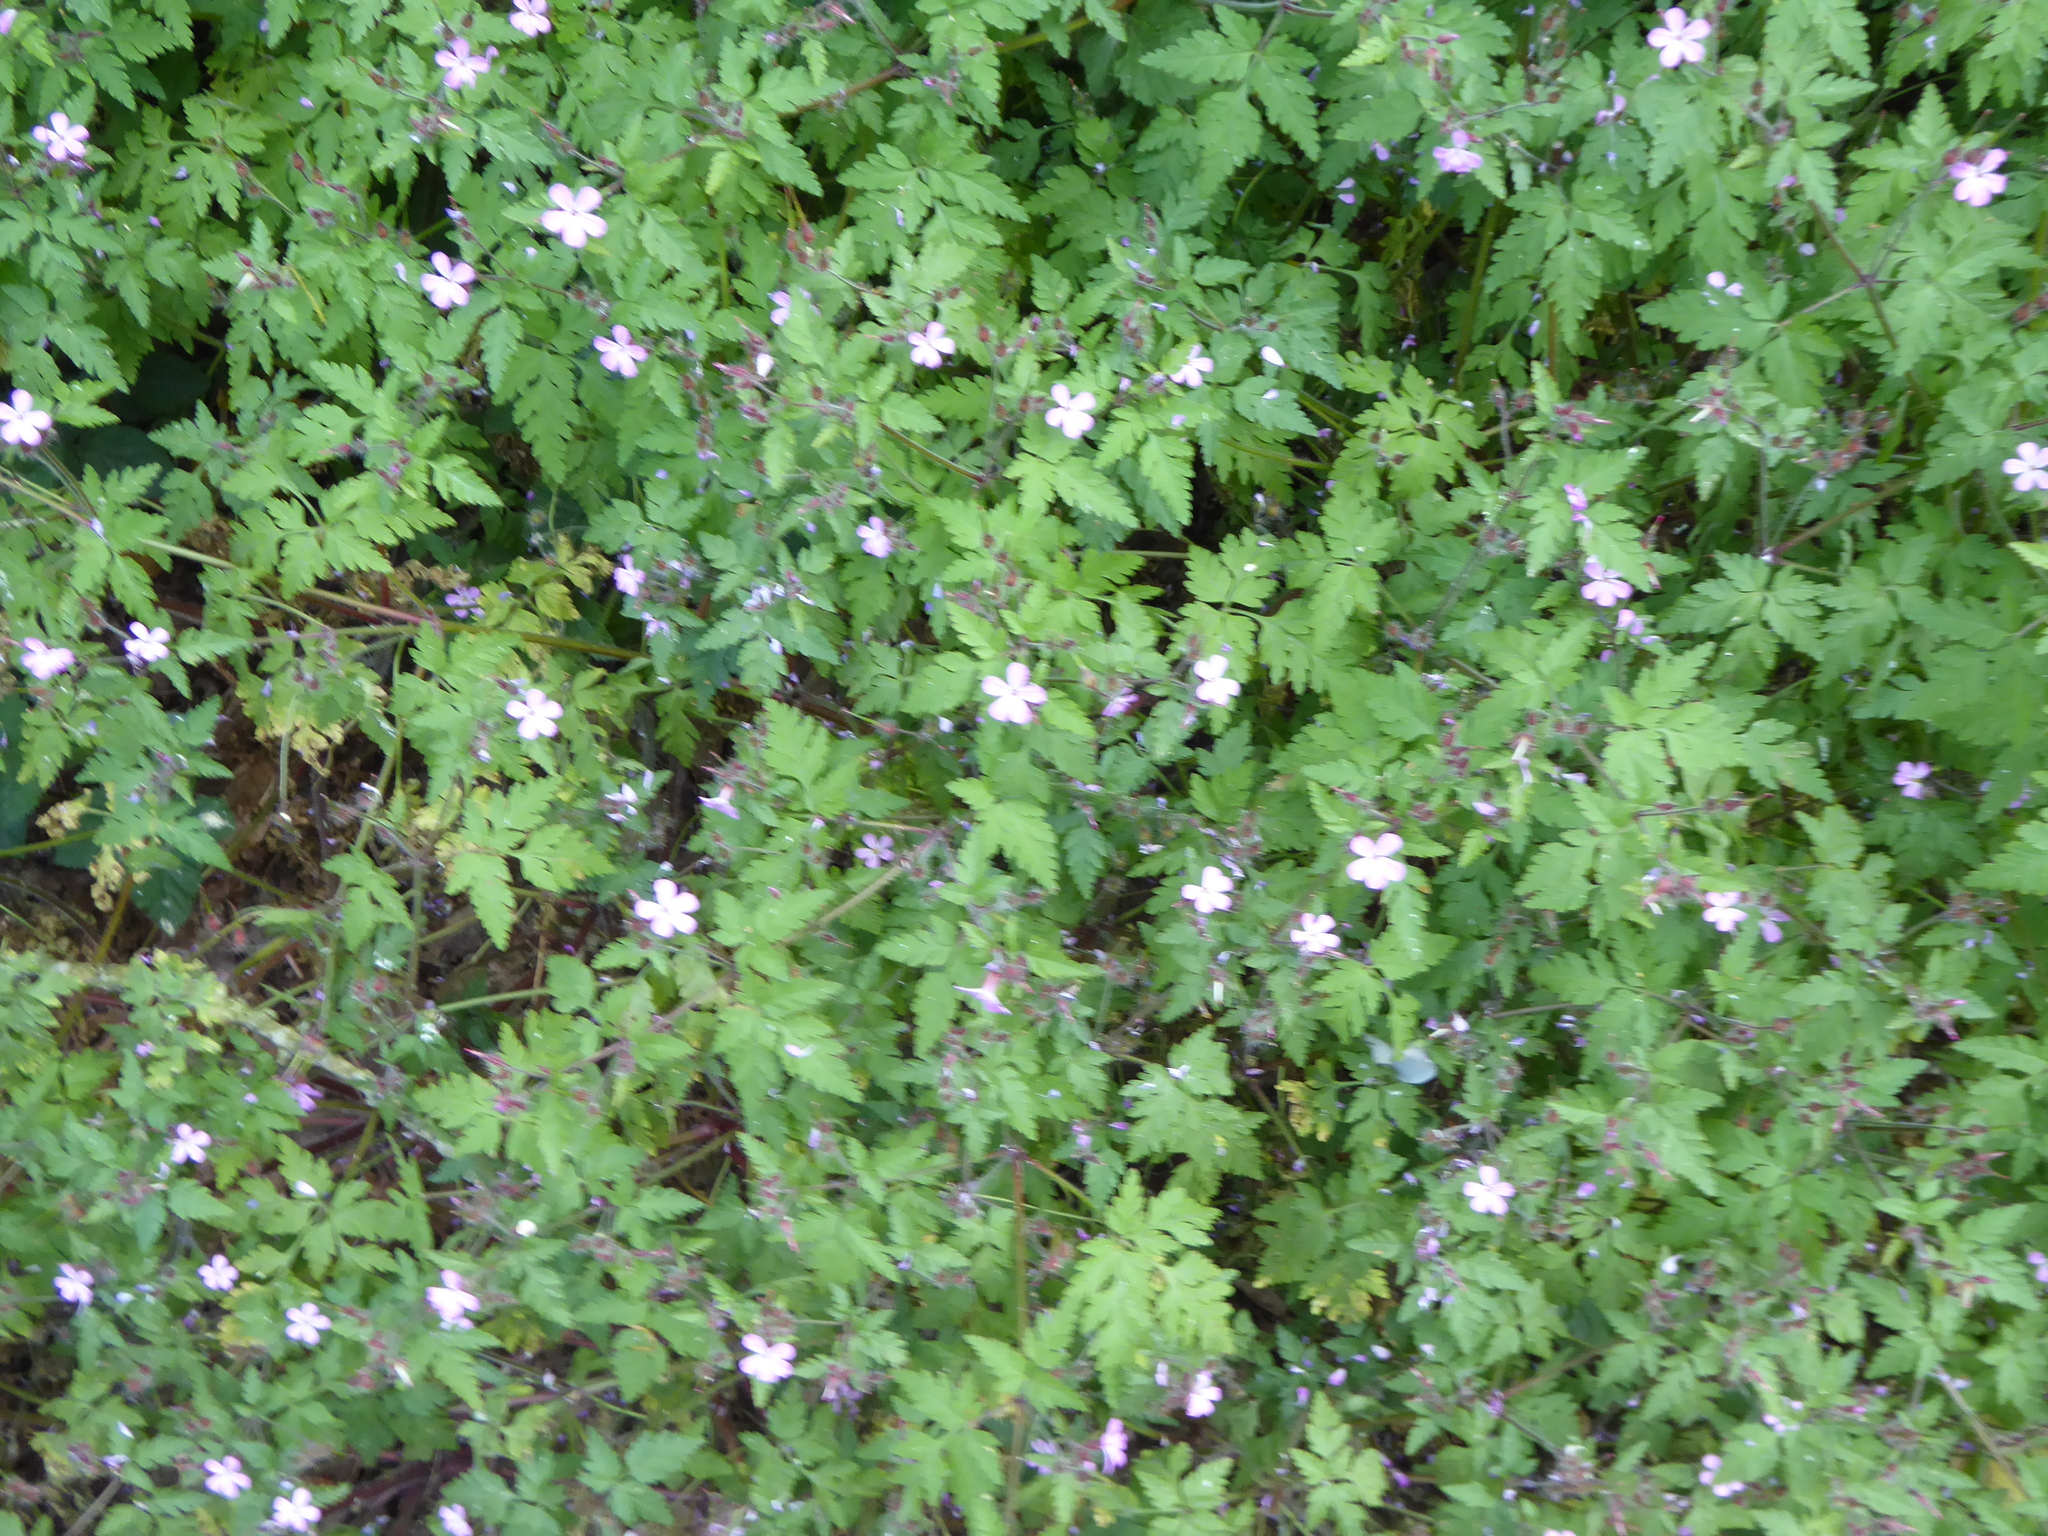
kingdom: Plantae
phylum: Tracheophyta
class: Magnoliopsida
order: Geraniales
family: Geraniaceae
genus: Geranium
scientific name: Geranium robertianum
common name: Herb-robert
